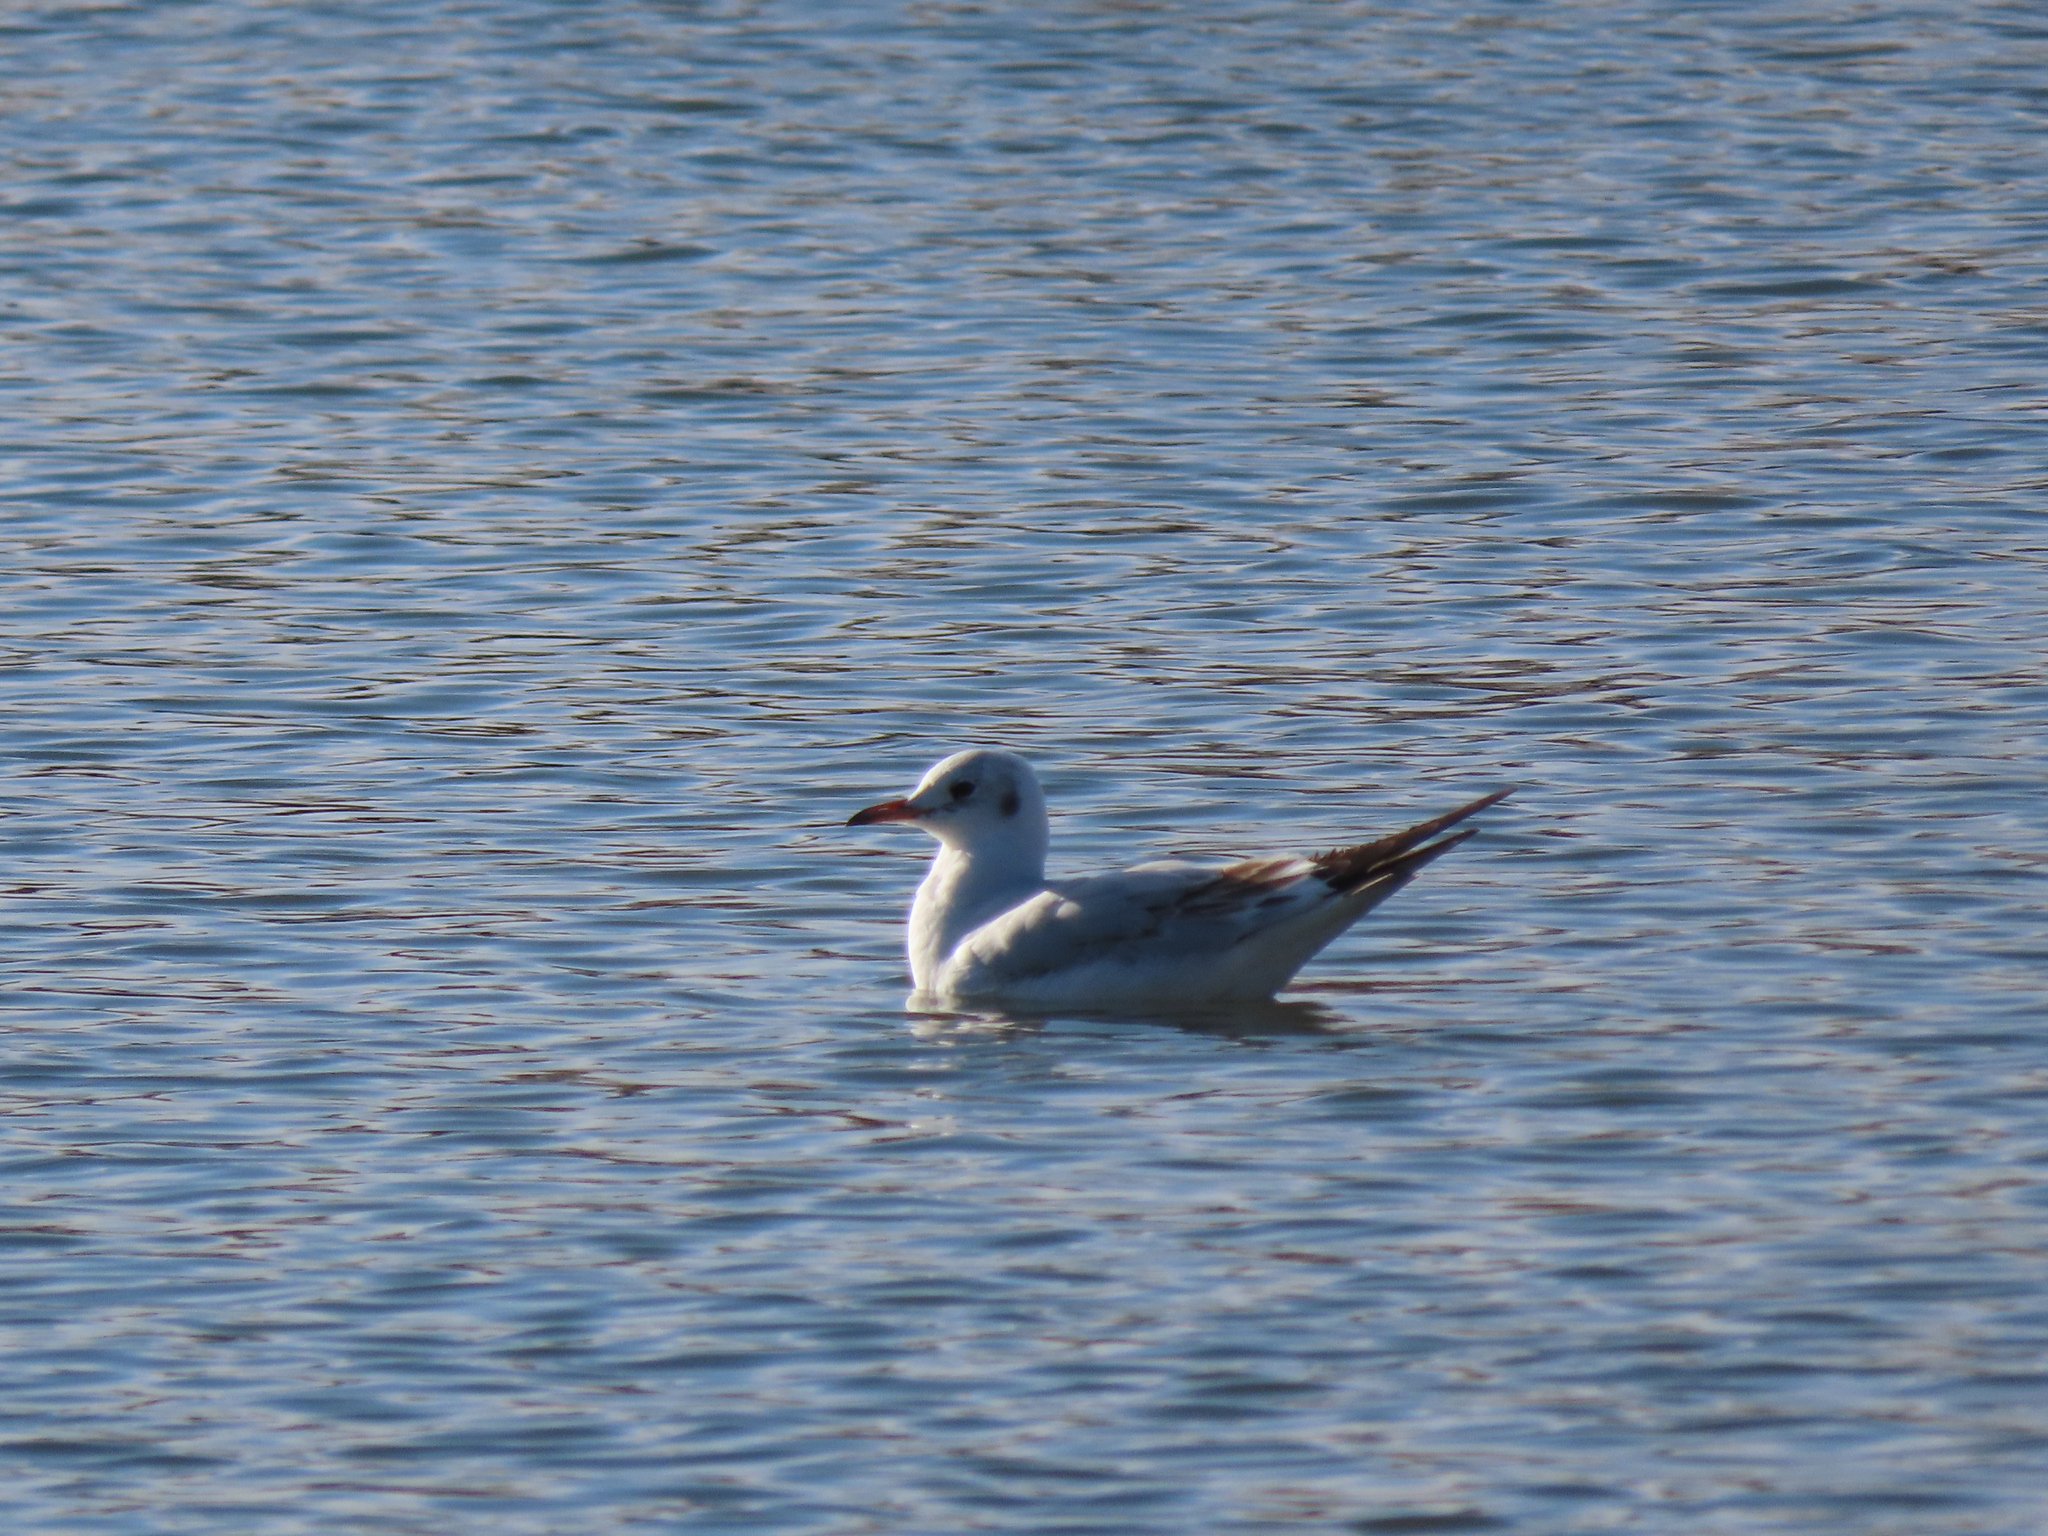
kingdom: Animalia
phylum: Chordata
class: Aves
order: Charadriiformes
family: Laridae
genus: Chroicocephalus
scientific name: Chroicocephalus ridibundus
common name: Black-headed gull
